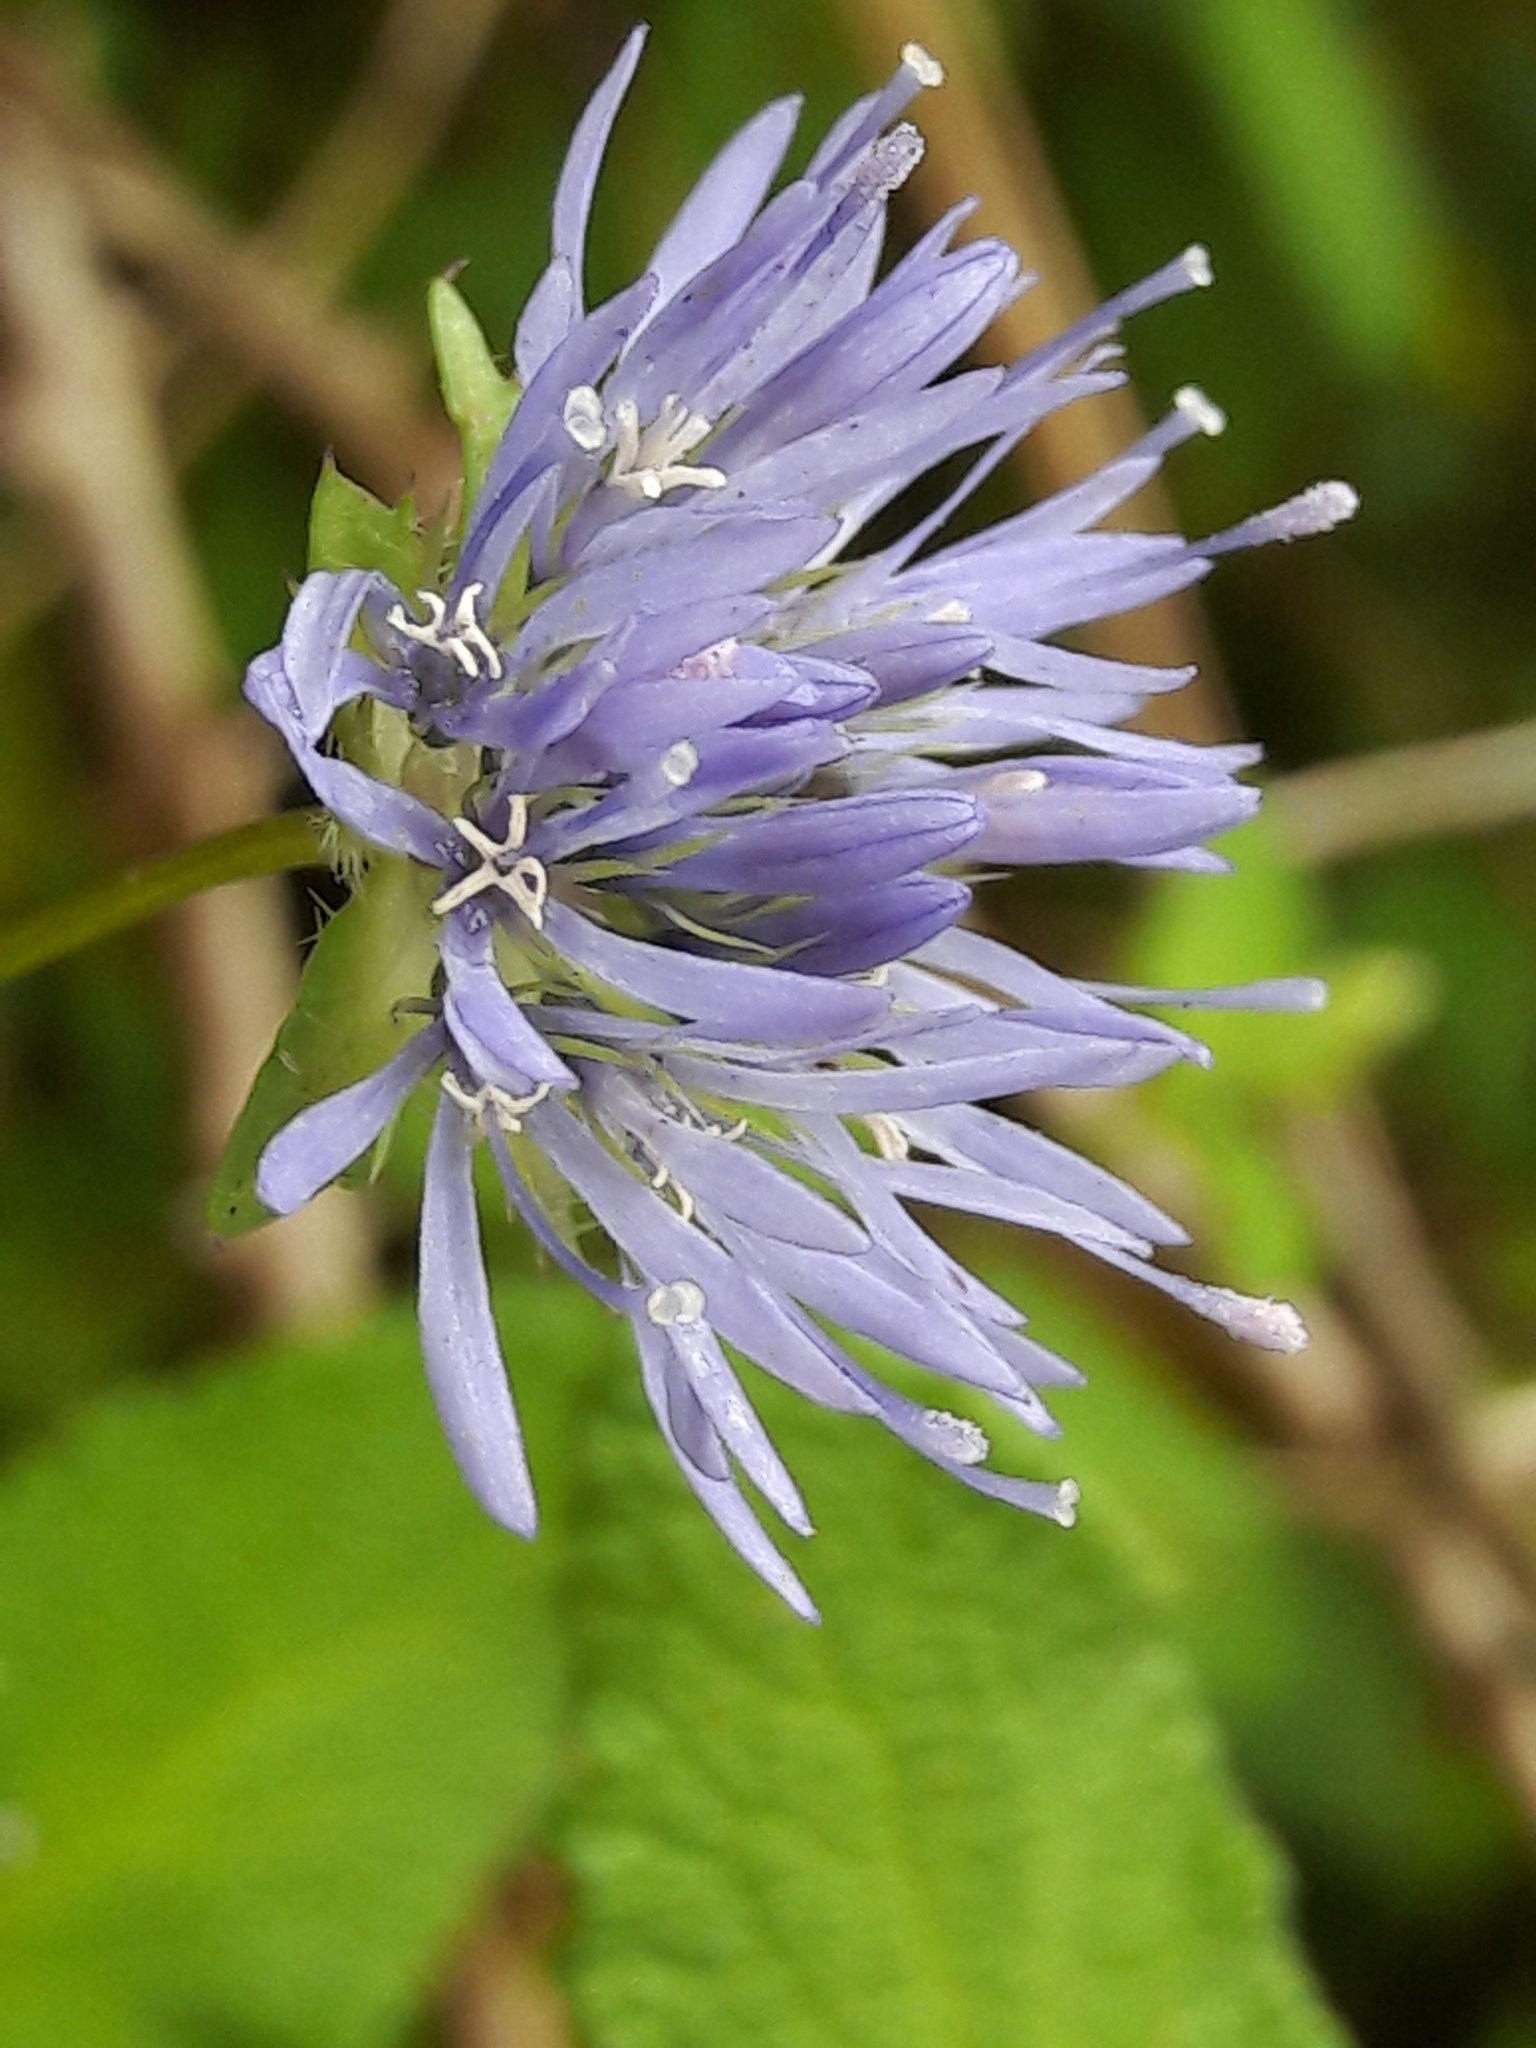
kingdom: Plantae
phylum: Tracheophyta
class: Magnoliopsida
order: Asterales
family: Campanulaceae
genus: Jasione
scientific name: Jasione montana
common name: Sheep's-bit
